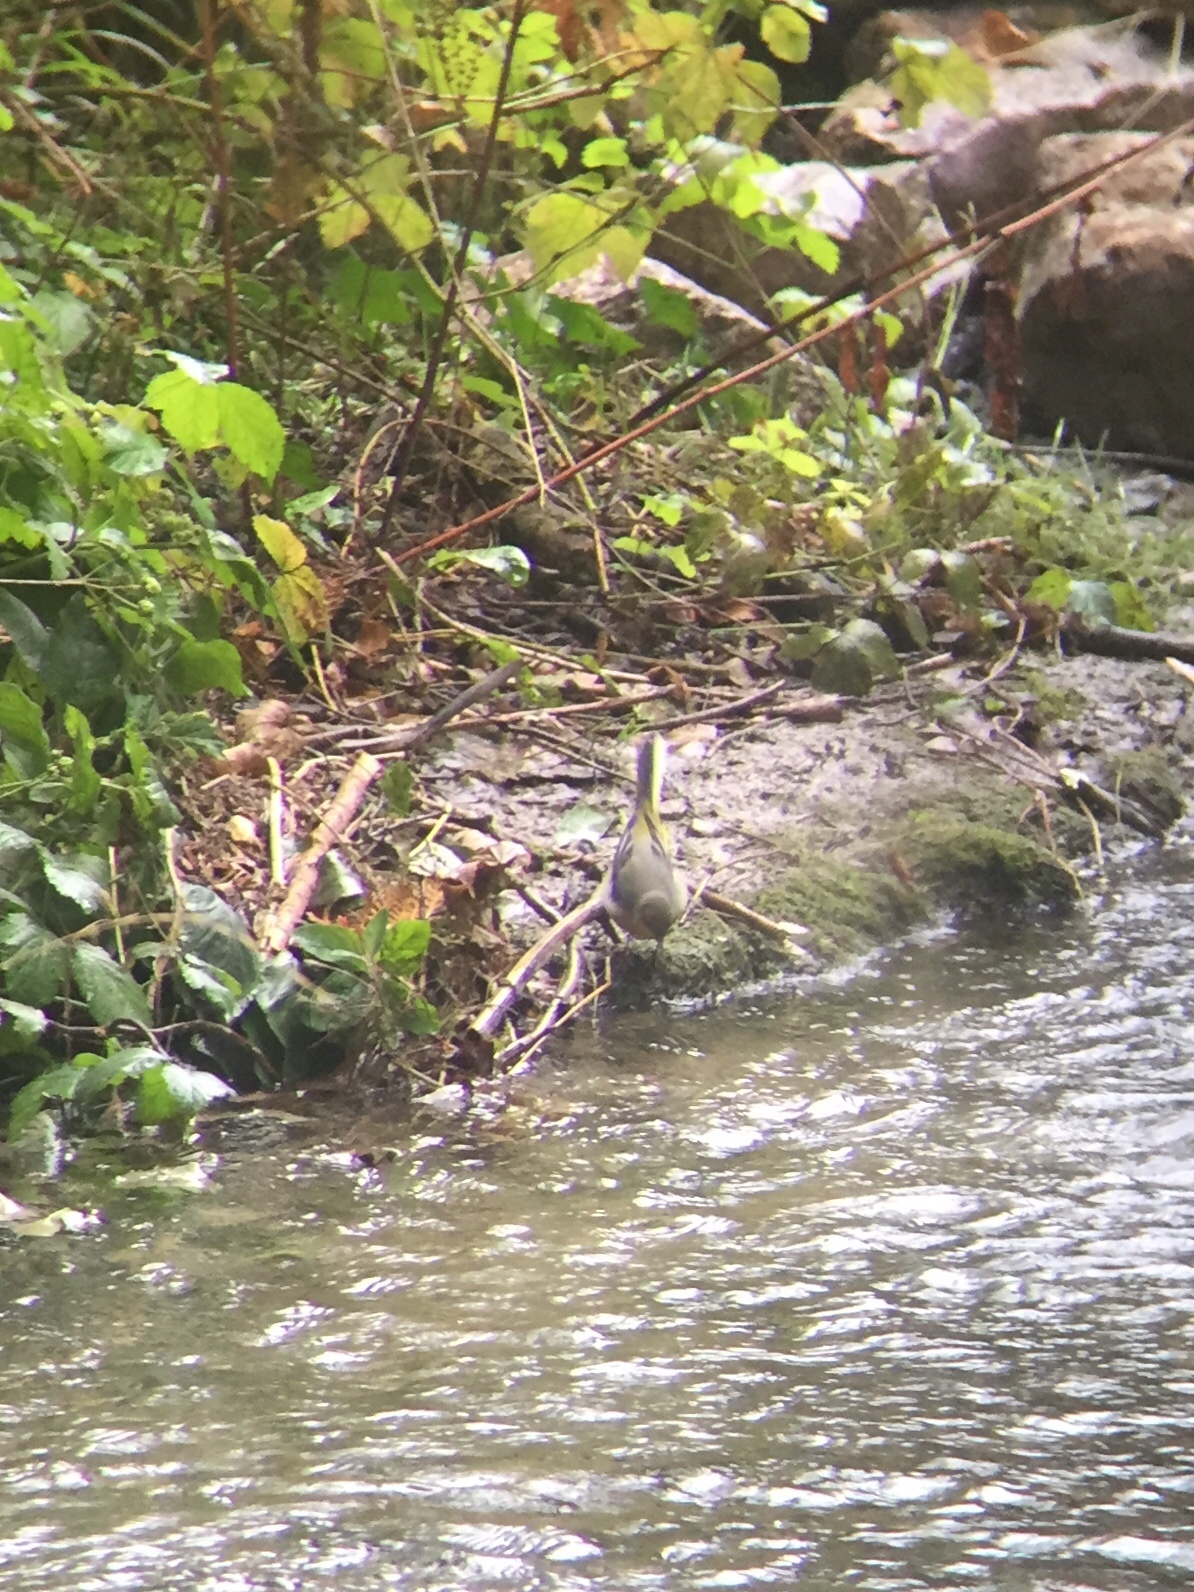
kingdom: Animalia
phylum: Chordata
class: Aves
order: Passeriformes
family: Motacillidae
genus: Motacilla
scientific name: Motacilla cinerea
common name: Grey wagtail
